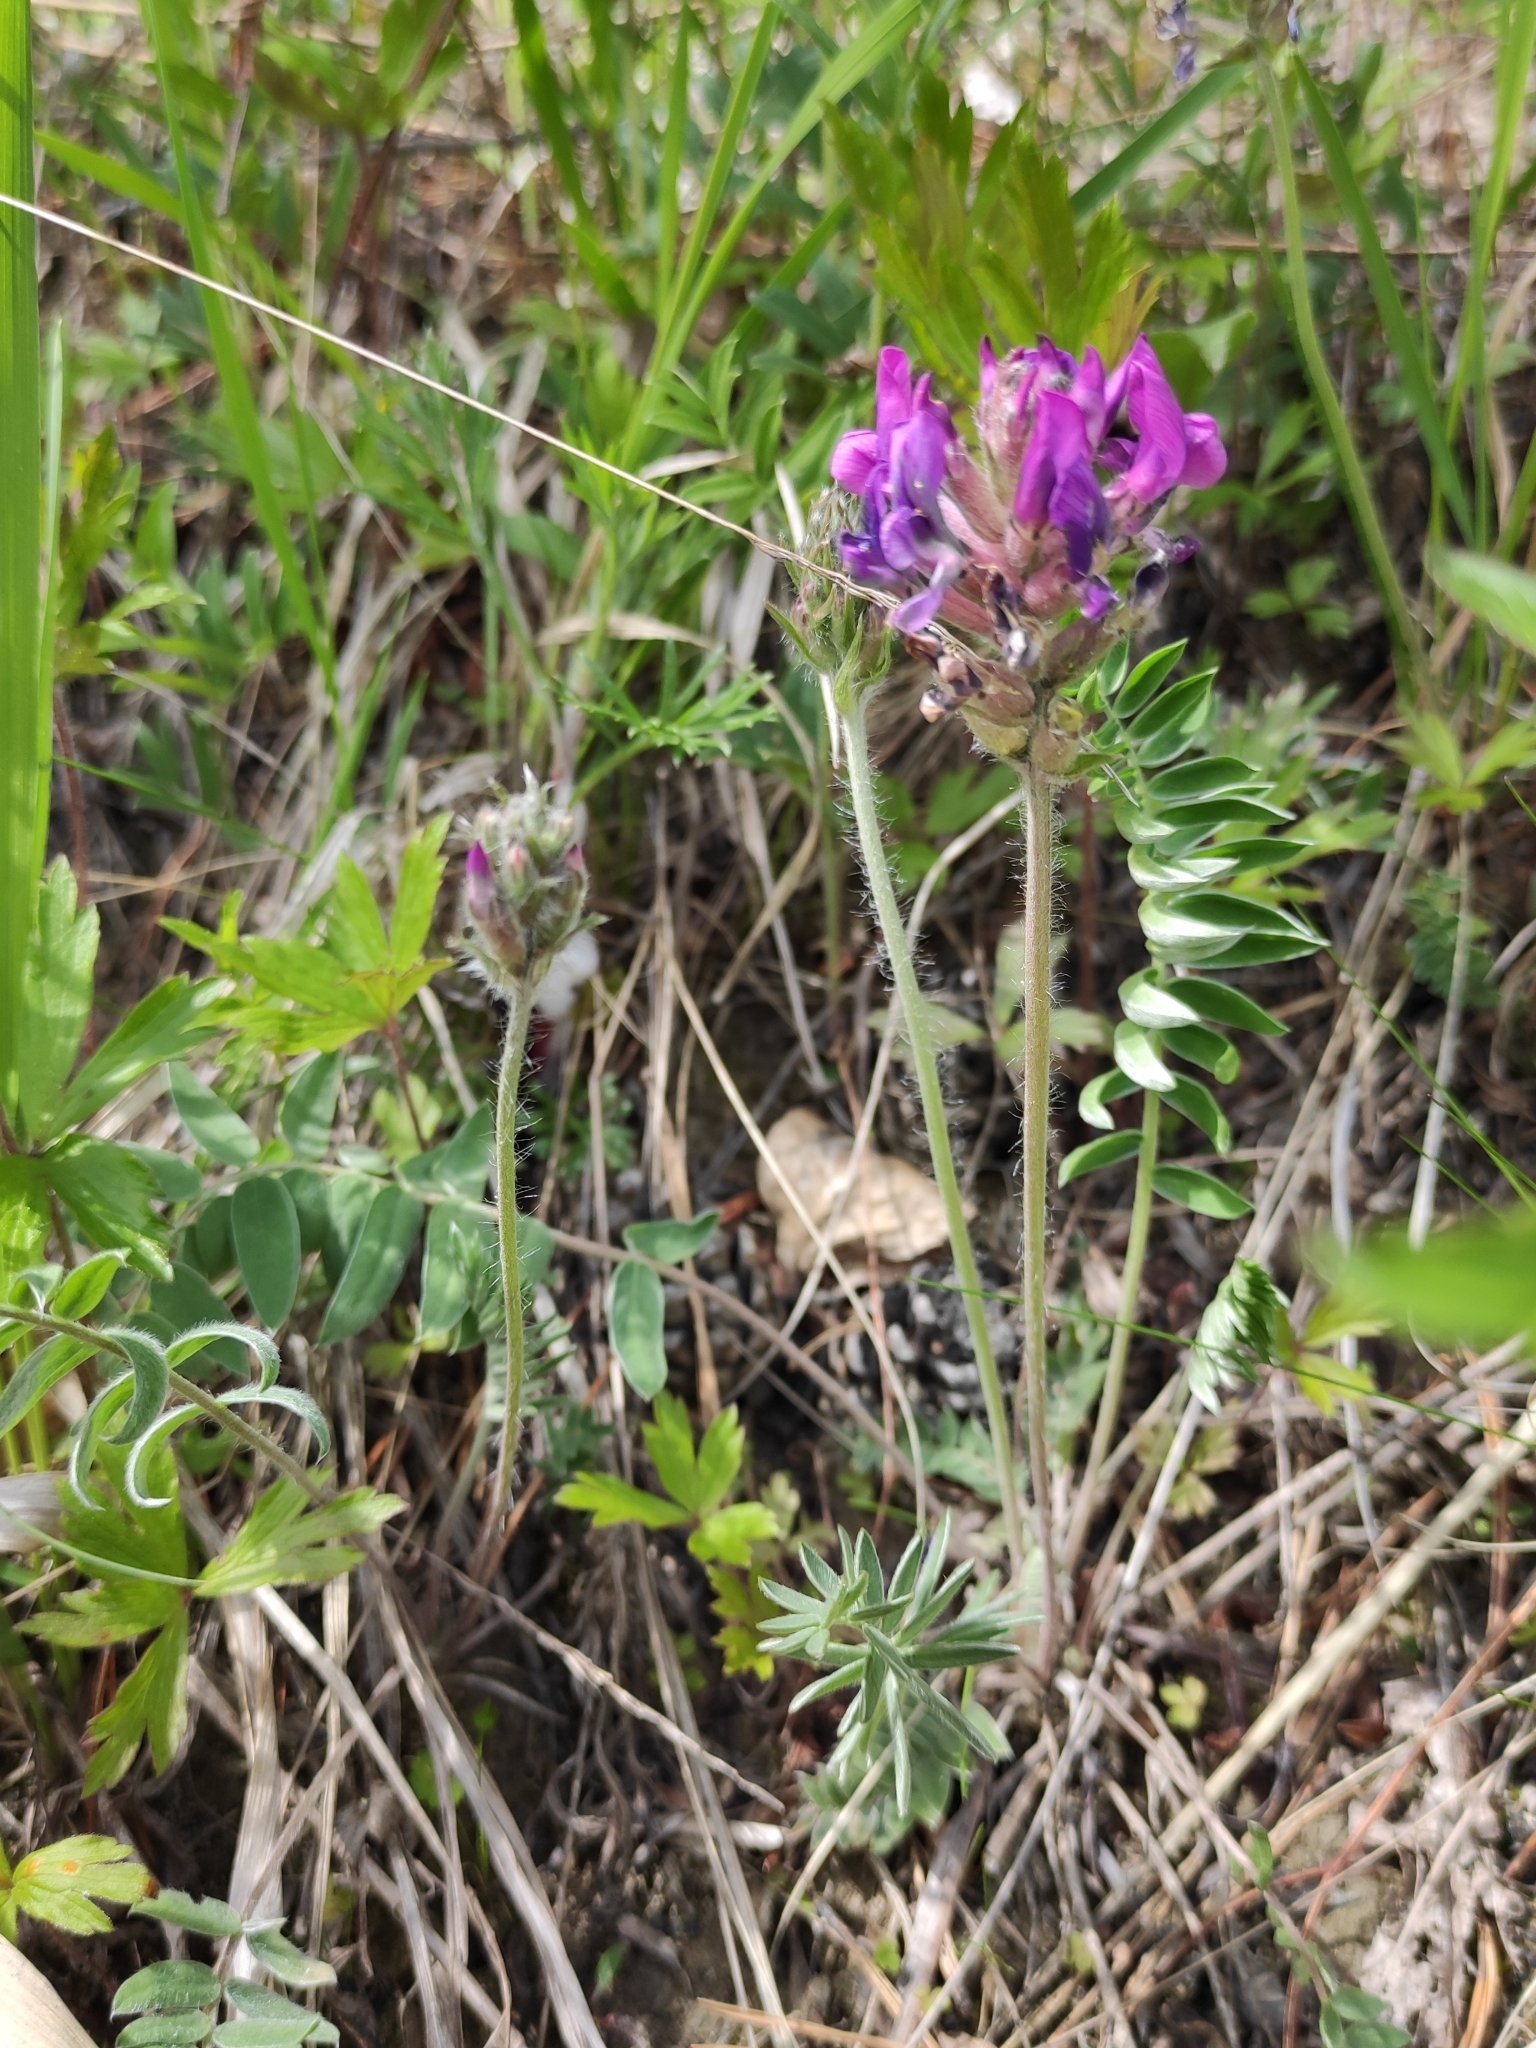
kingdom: Plantae
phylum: Tracheophyta
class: Magnoliopsida
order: Fabales
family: Fabaceae
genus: Oxytropis
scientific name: Oxytropis strobilacea
